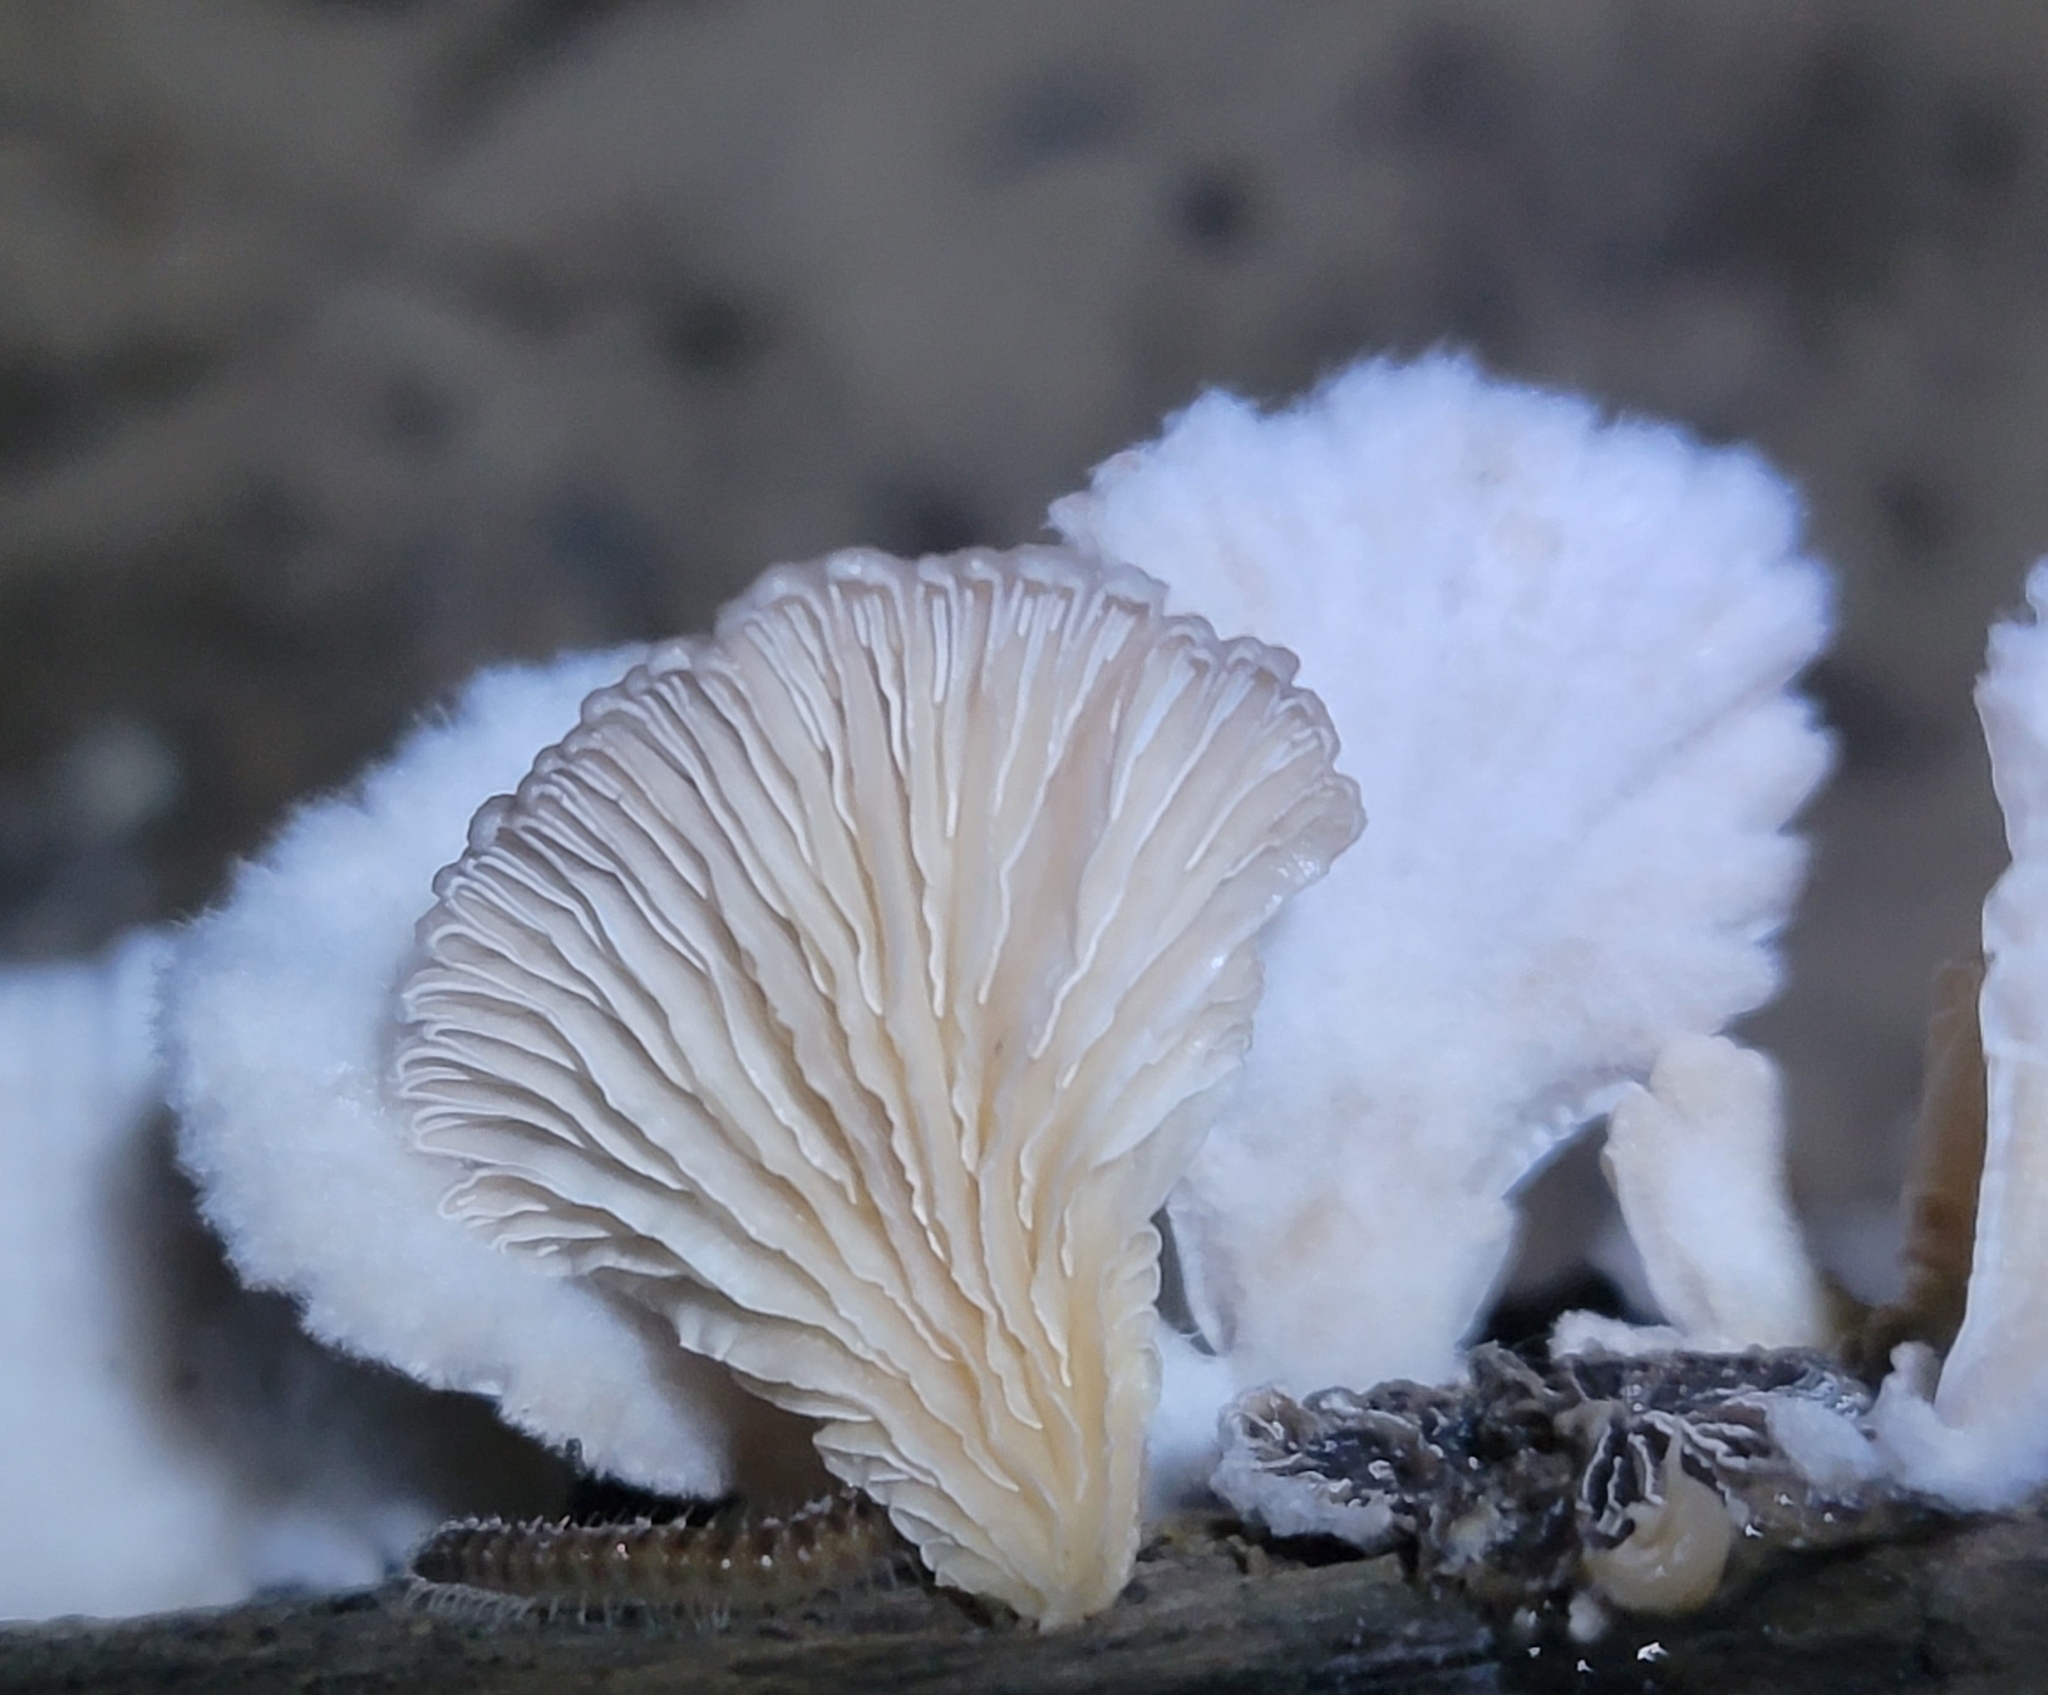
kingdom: Fungi
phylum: Basidiomycota
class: Agaricomycetes
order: Agaricales
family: Schizophyllaceae
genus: Schizophyllum
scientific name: Schizophyllum commune
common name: Common porecrust
